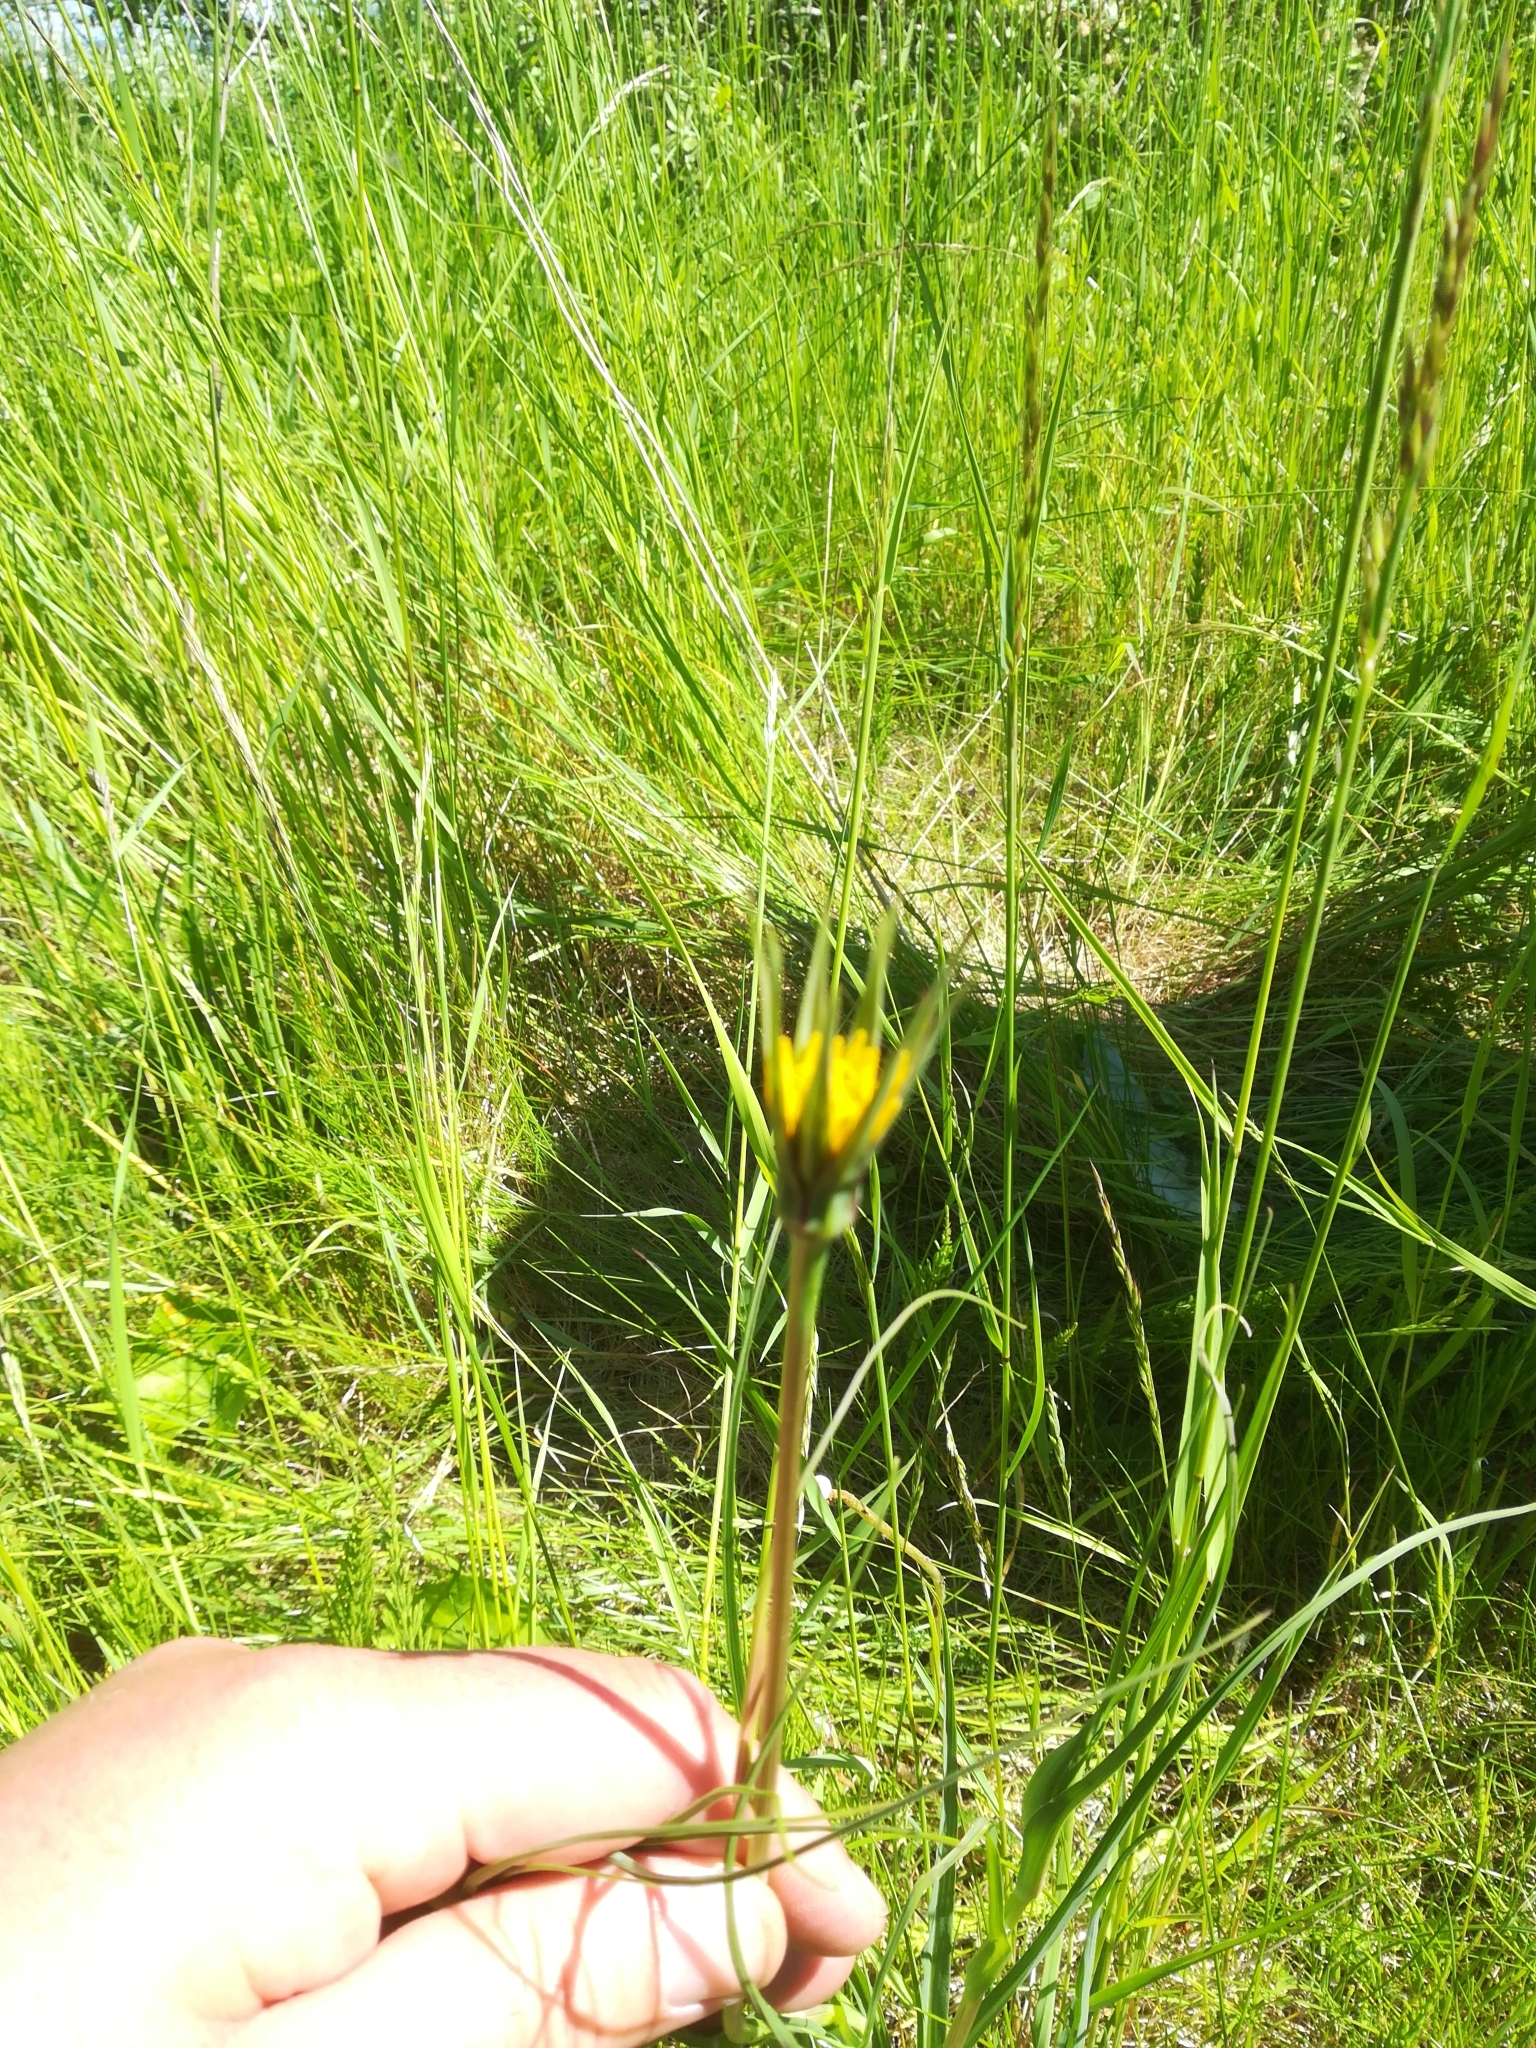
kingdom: Plantae
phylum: Tracheophyta
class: Magnoliopsida
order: Asterales
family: Asteraceae
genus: Tragopogon
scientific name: Tragopogon pratensis
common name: Goat's-beard
